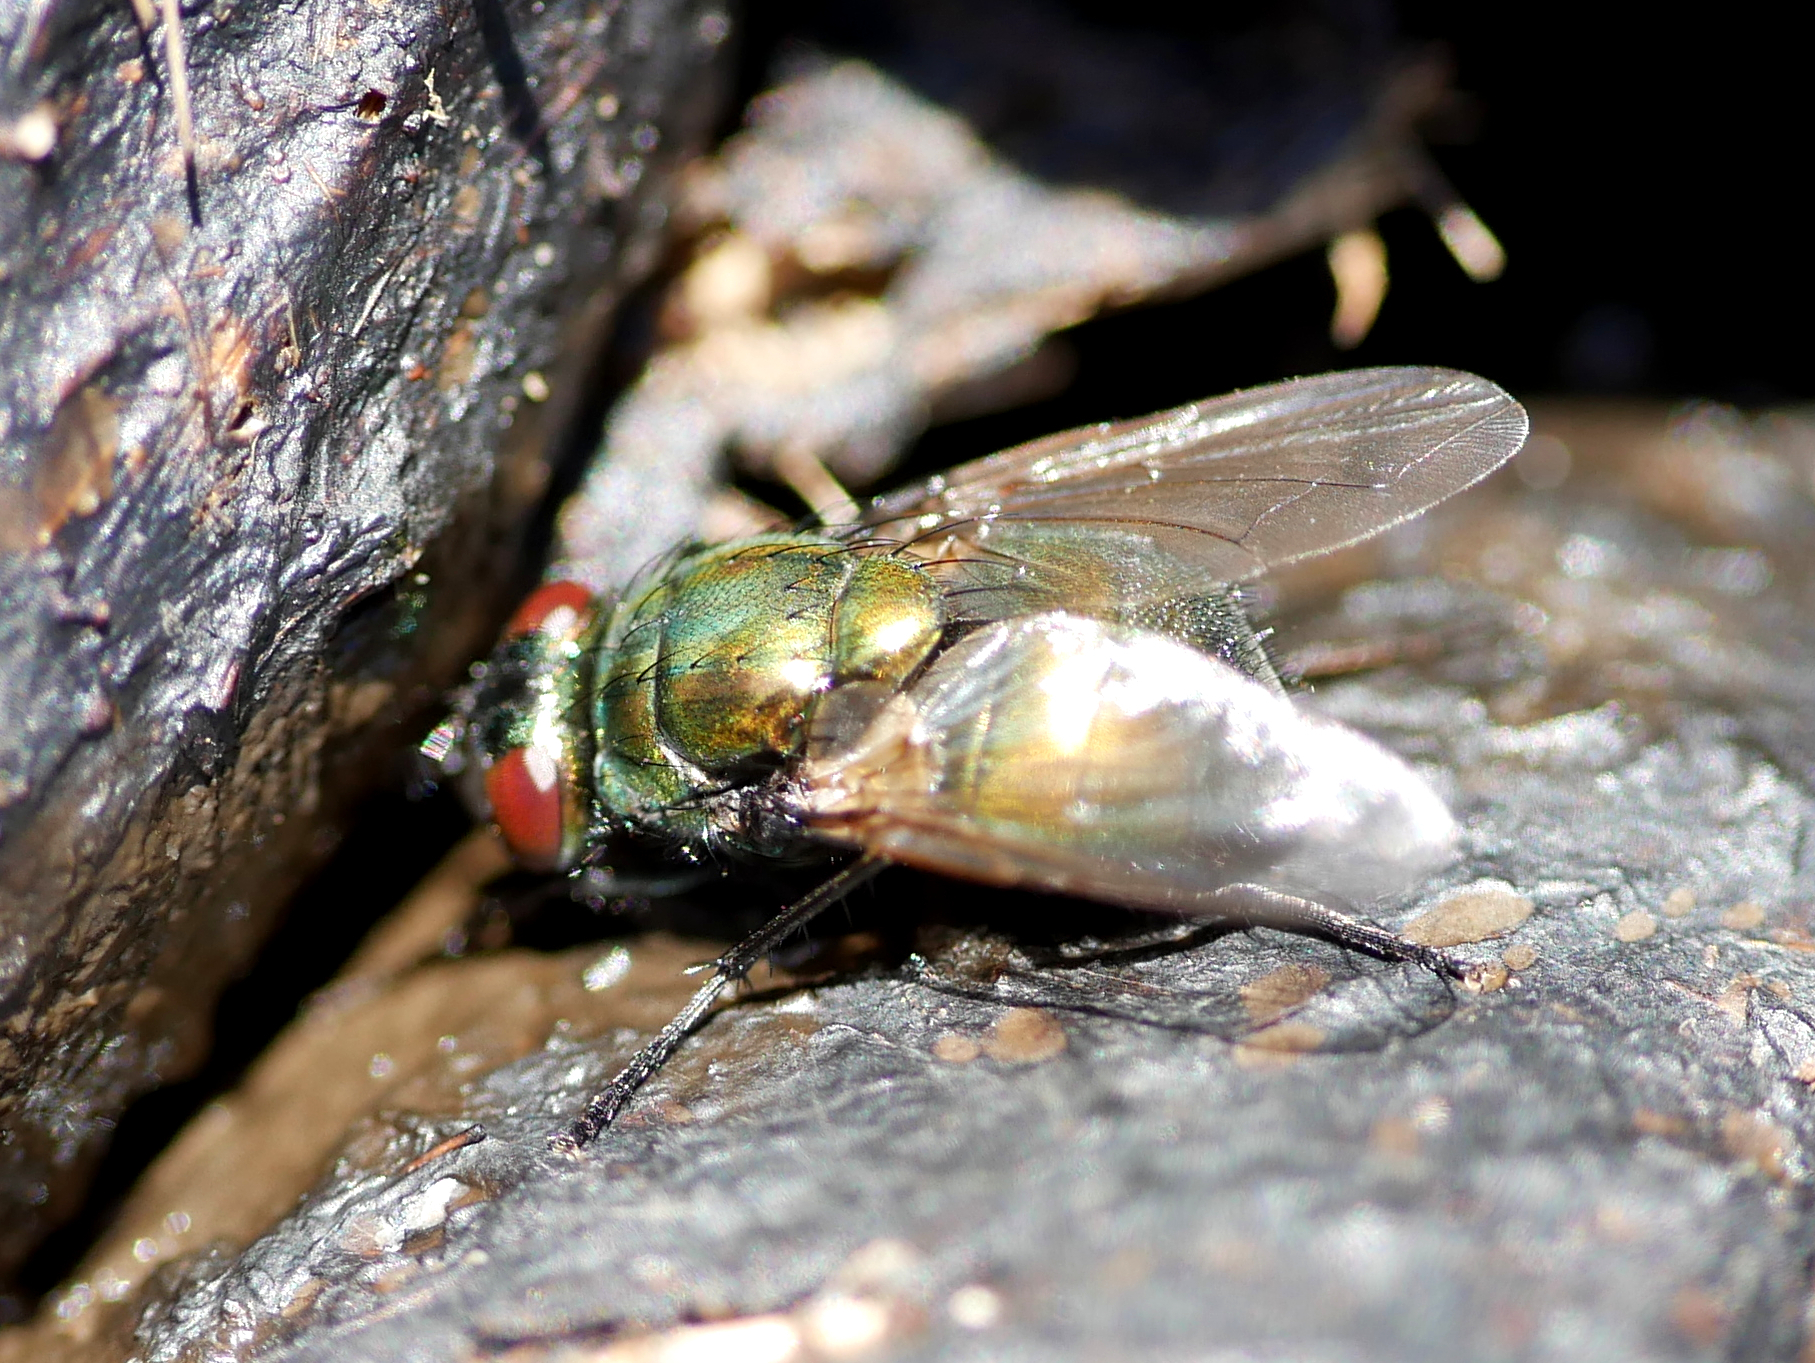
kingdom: Animalia
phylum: Arthropoda
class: Insecta
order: Diptera
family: Muscidae
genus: Neomyia
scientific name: Neomyia cornicina
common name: House fly
